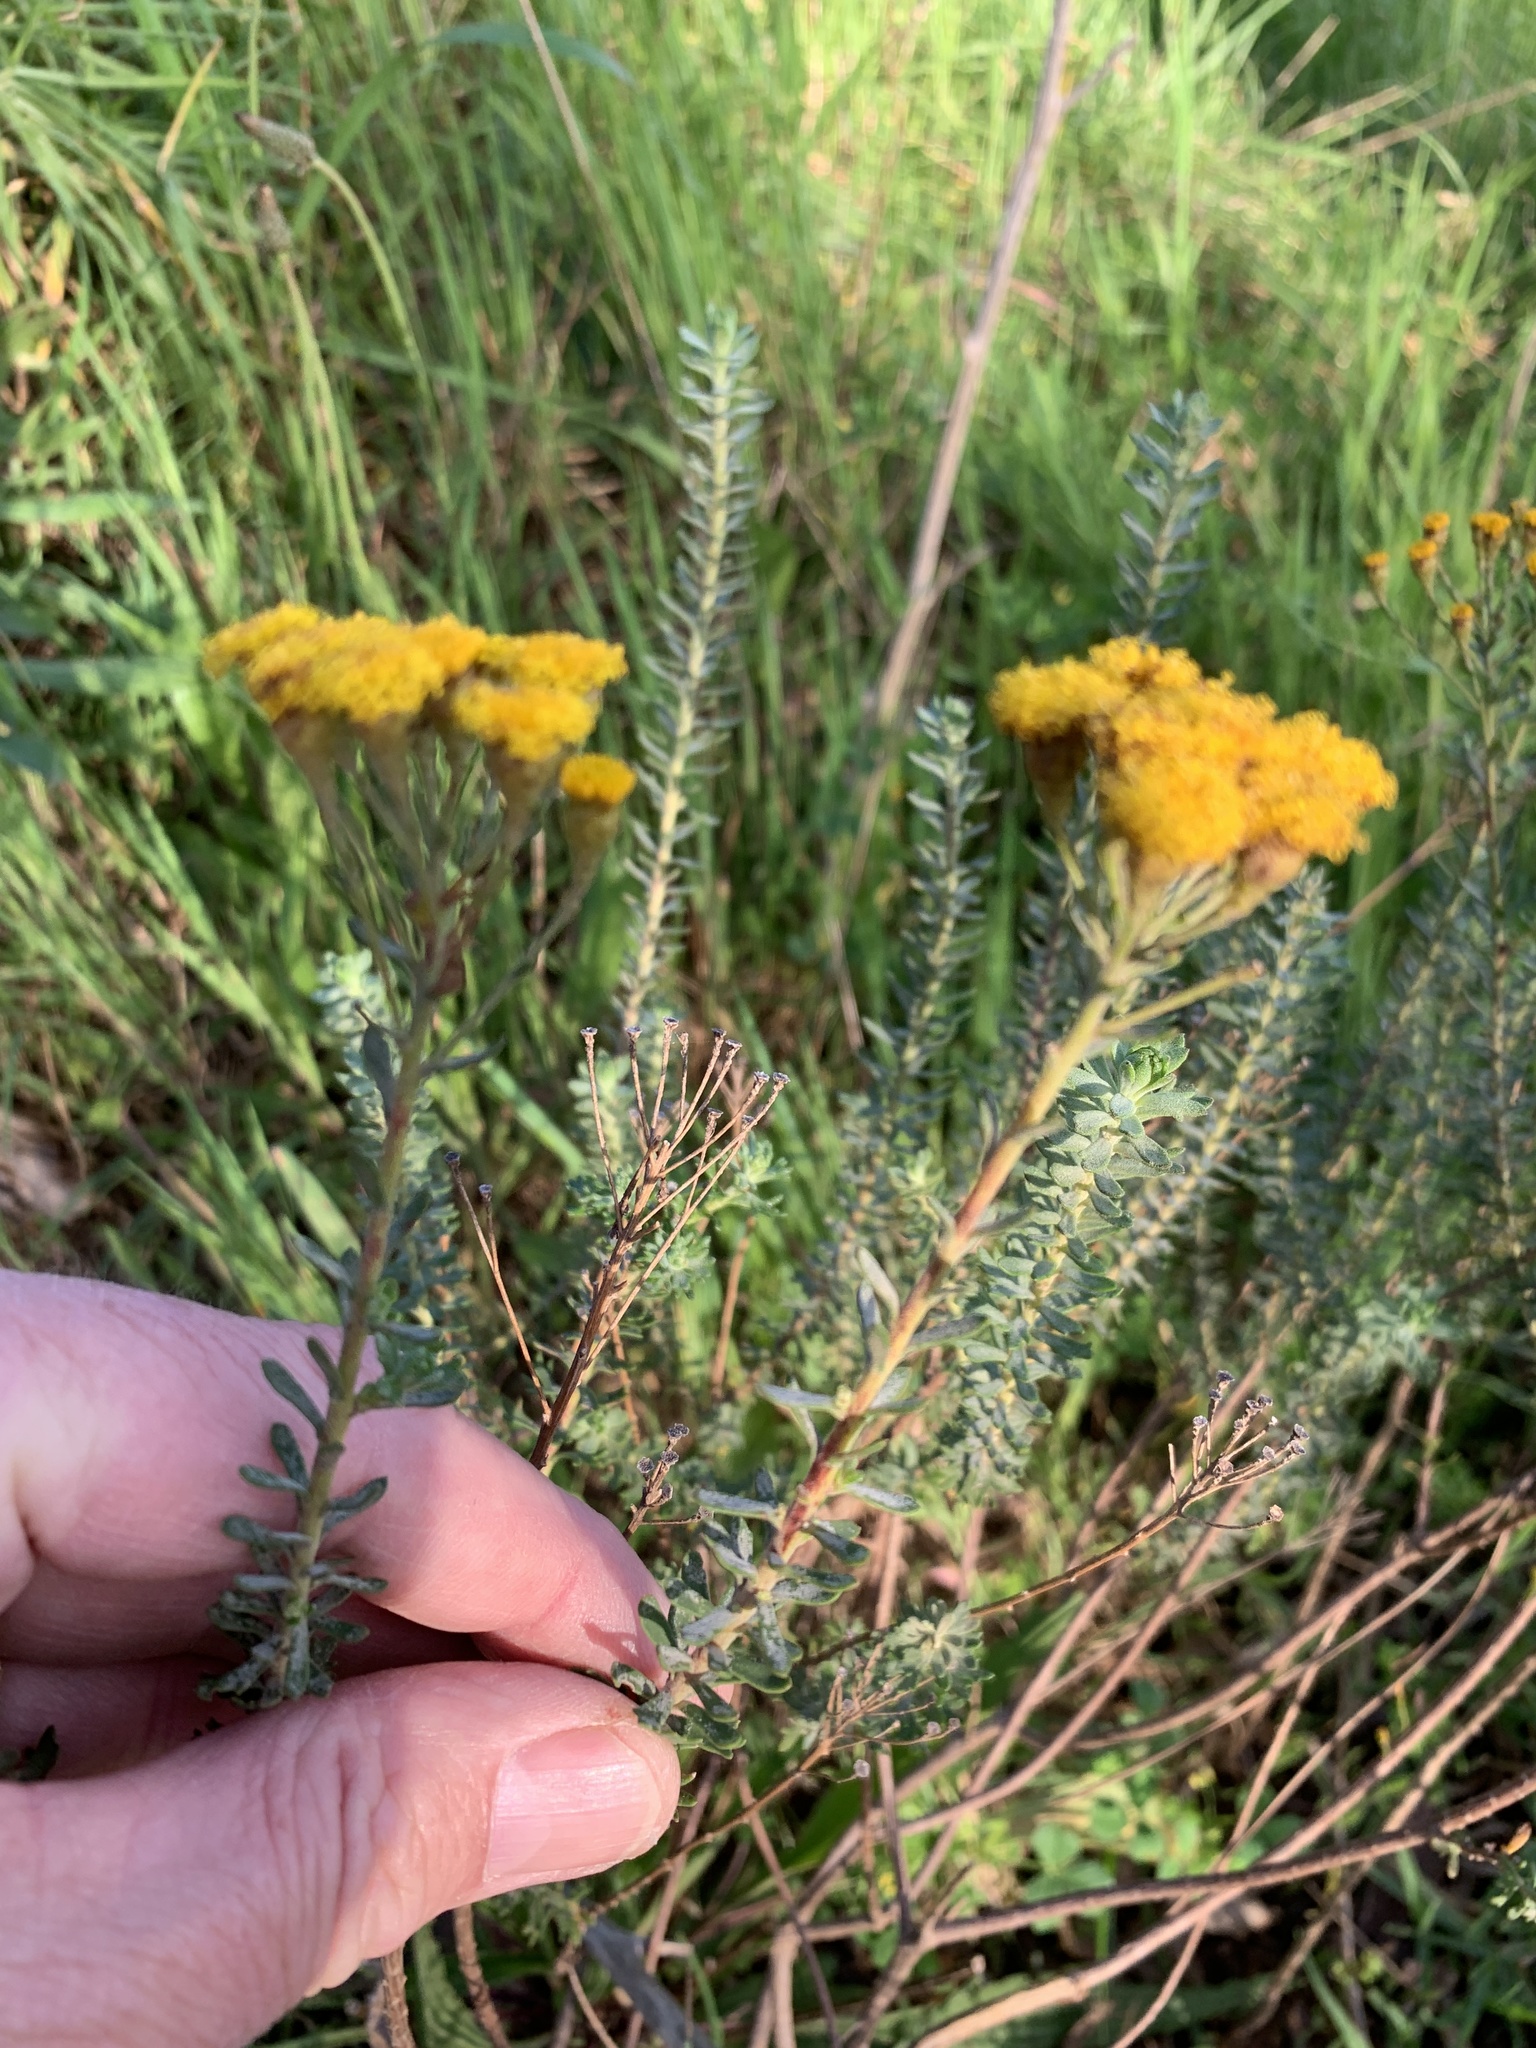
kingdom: Plantae
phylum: Tracheophyta
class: Magnoliopsida
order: Asterales
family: Asteraceae
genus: Athanasia
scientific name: Athanasia trifurcata
